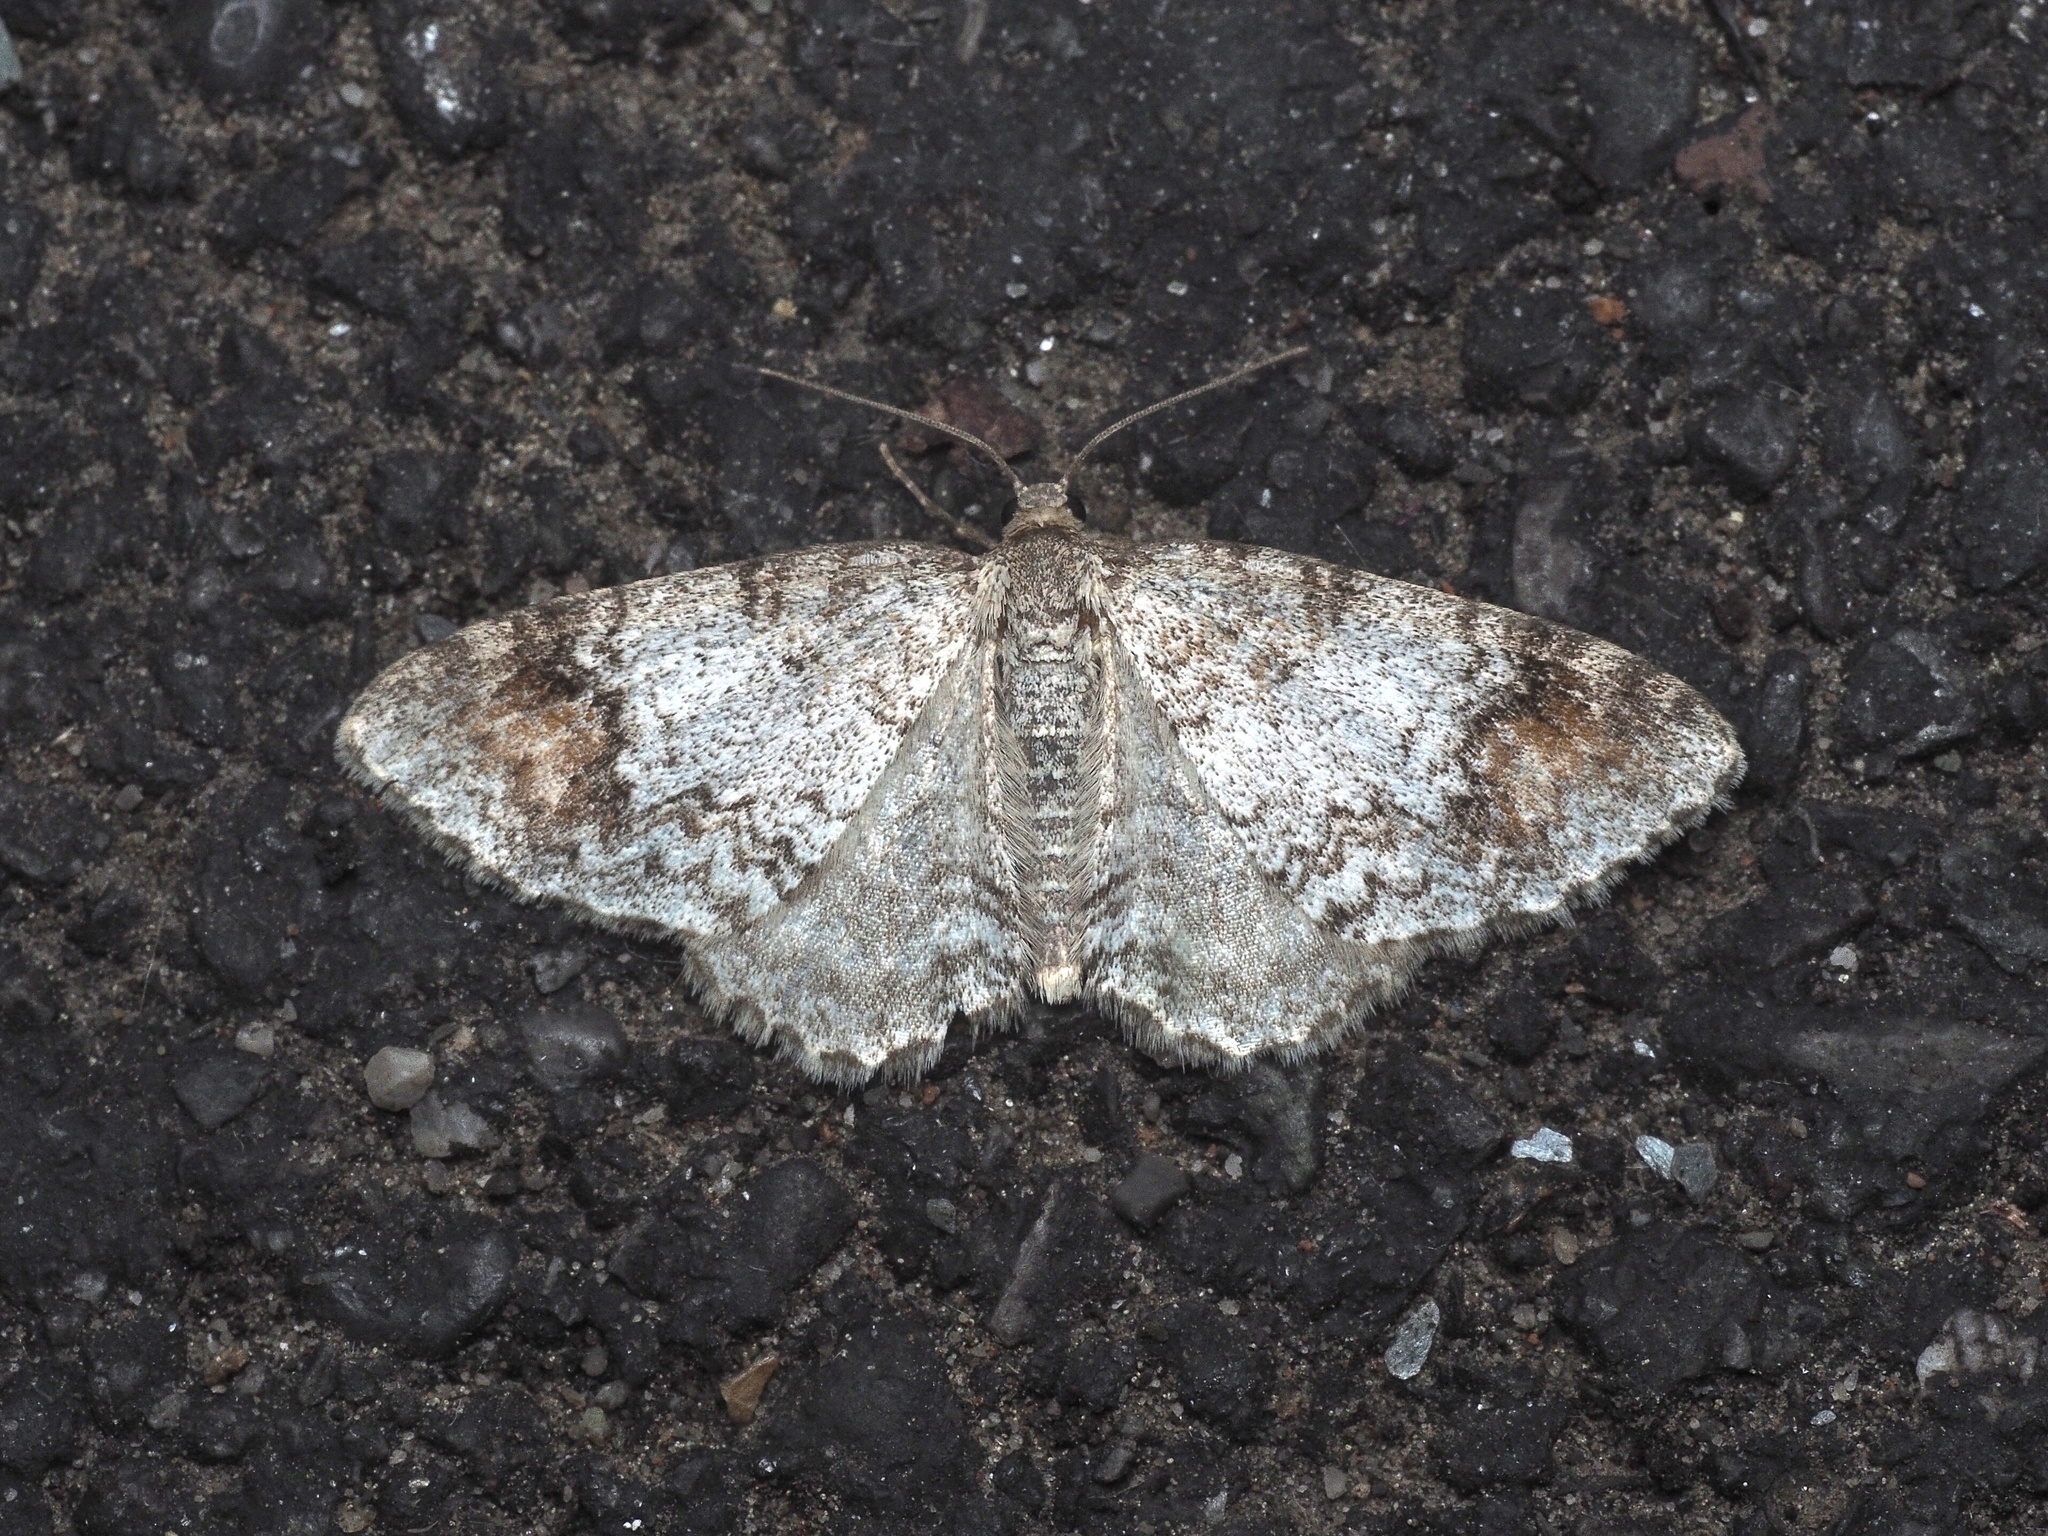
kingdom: Animalia
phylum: Arthropoda
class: Insecta
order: Lepidoptera
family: Geometridae
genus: Venusia
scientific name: Venusia blomeri
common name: Blomer's rivulet
